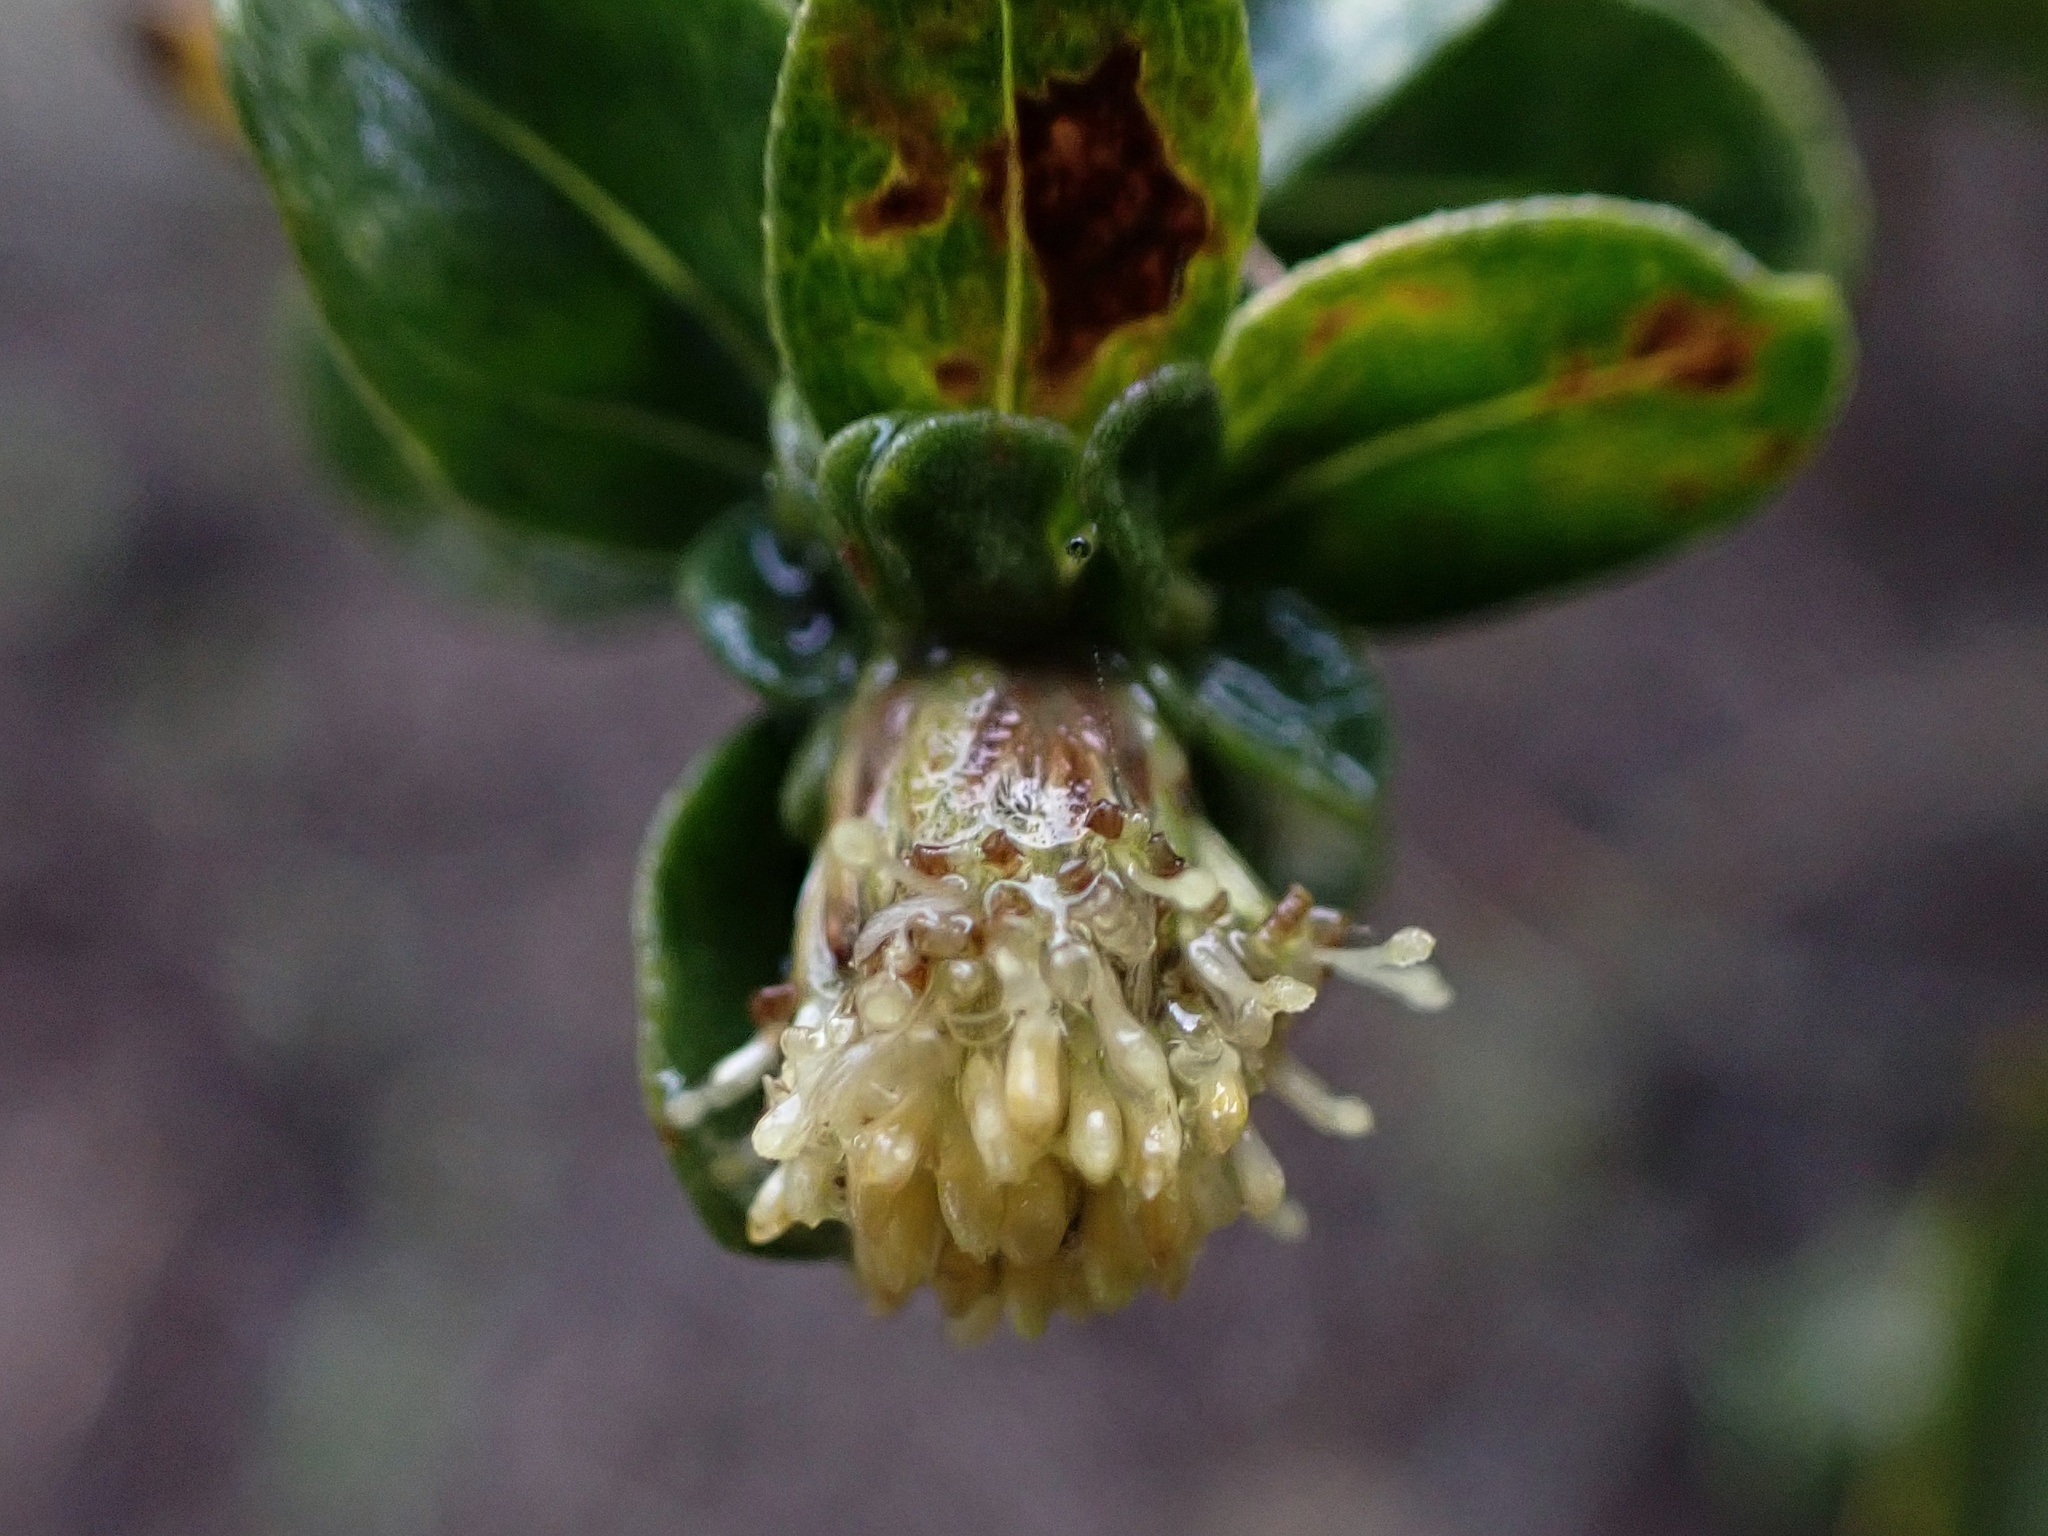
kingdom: Plantae
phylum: Tracheophyta
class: Magnoliopsida
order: Asterales
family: Asteraceae
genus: Baccharis
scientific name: Baccharis pilularis
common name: Coyotebrush
